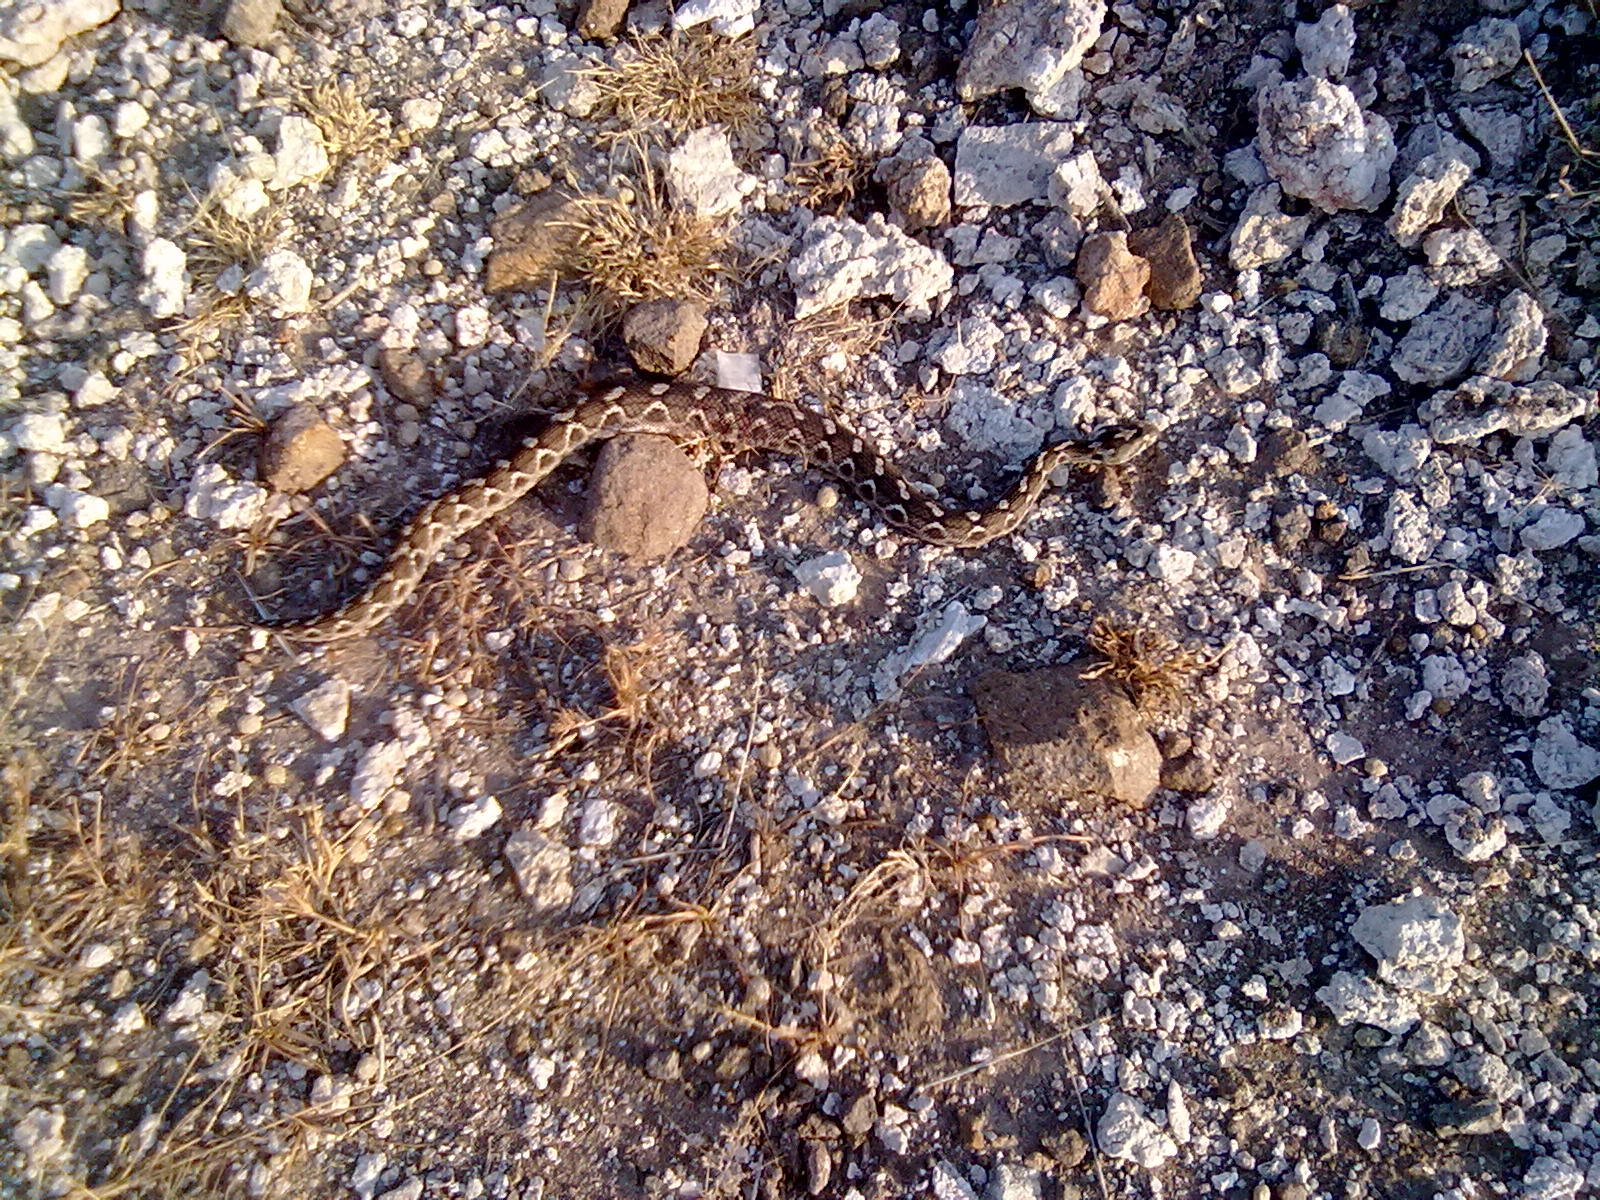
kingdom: Animalia
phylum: Chordata
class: Squamata
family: Viperidae
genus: Echis
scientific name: Echis carinatus
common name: Saw-scaled viper
